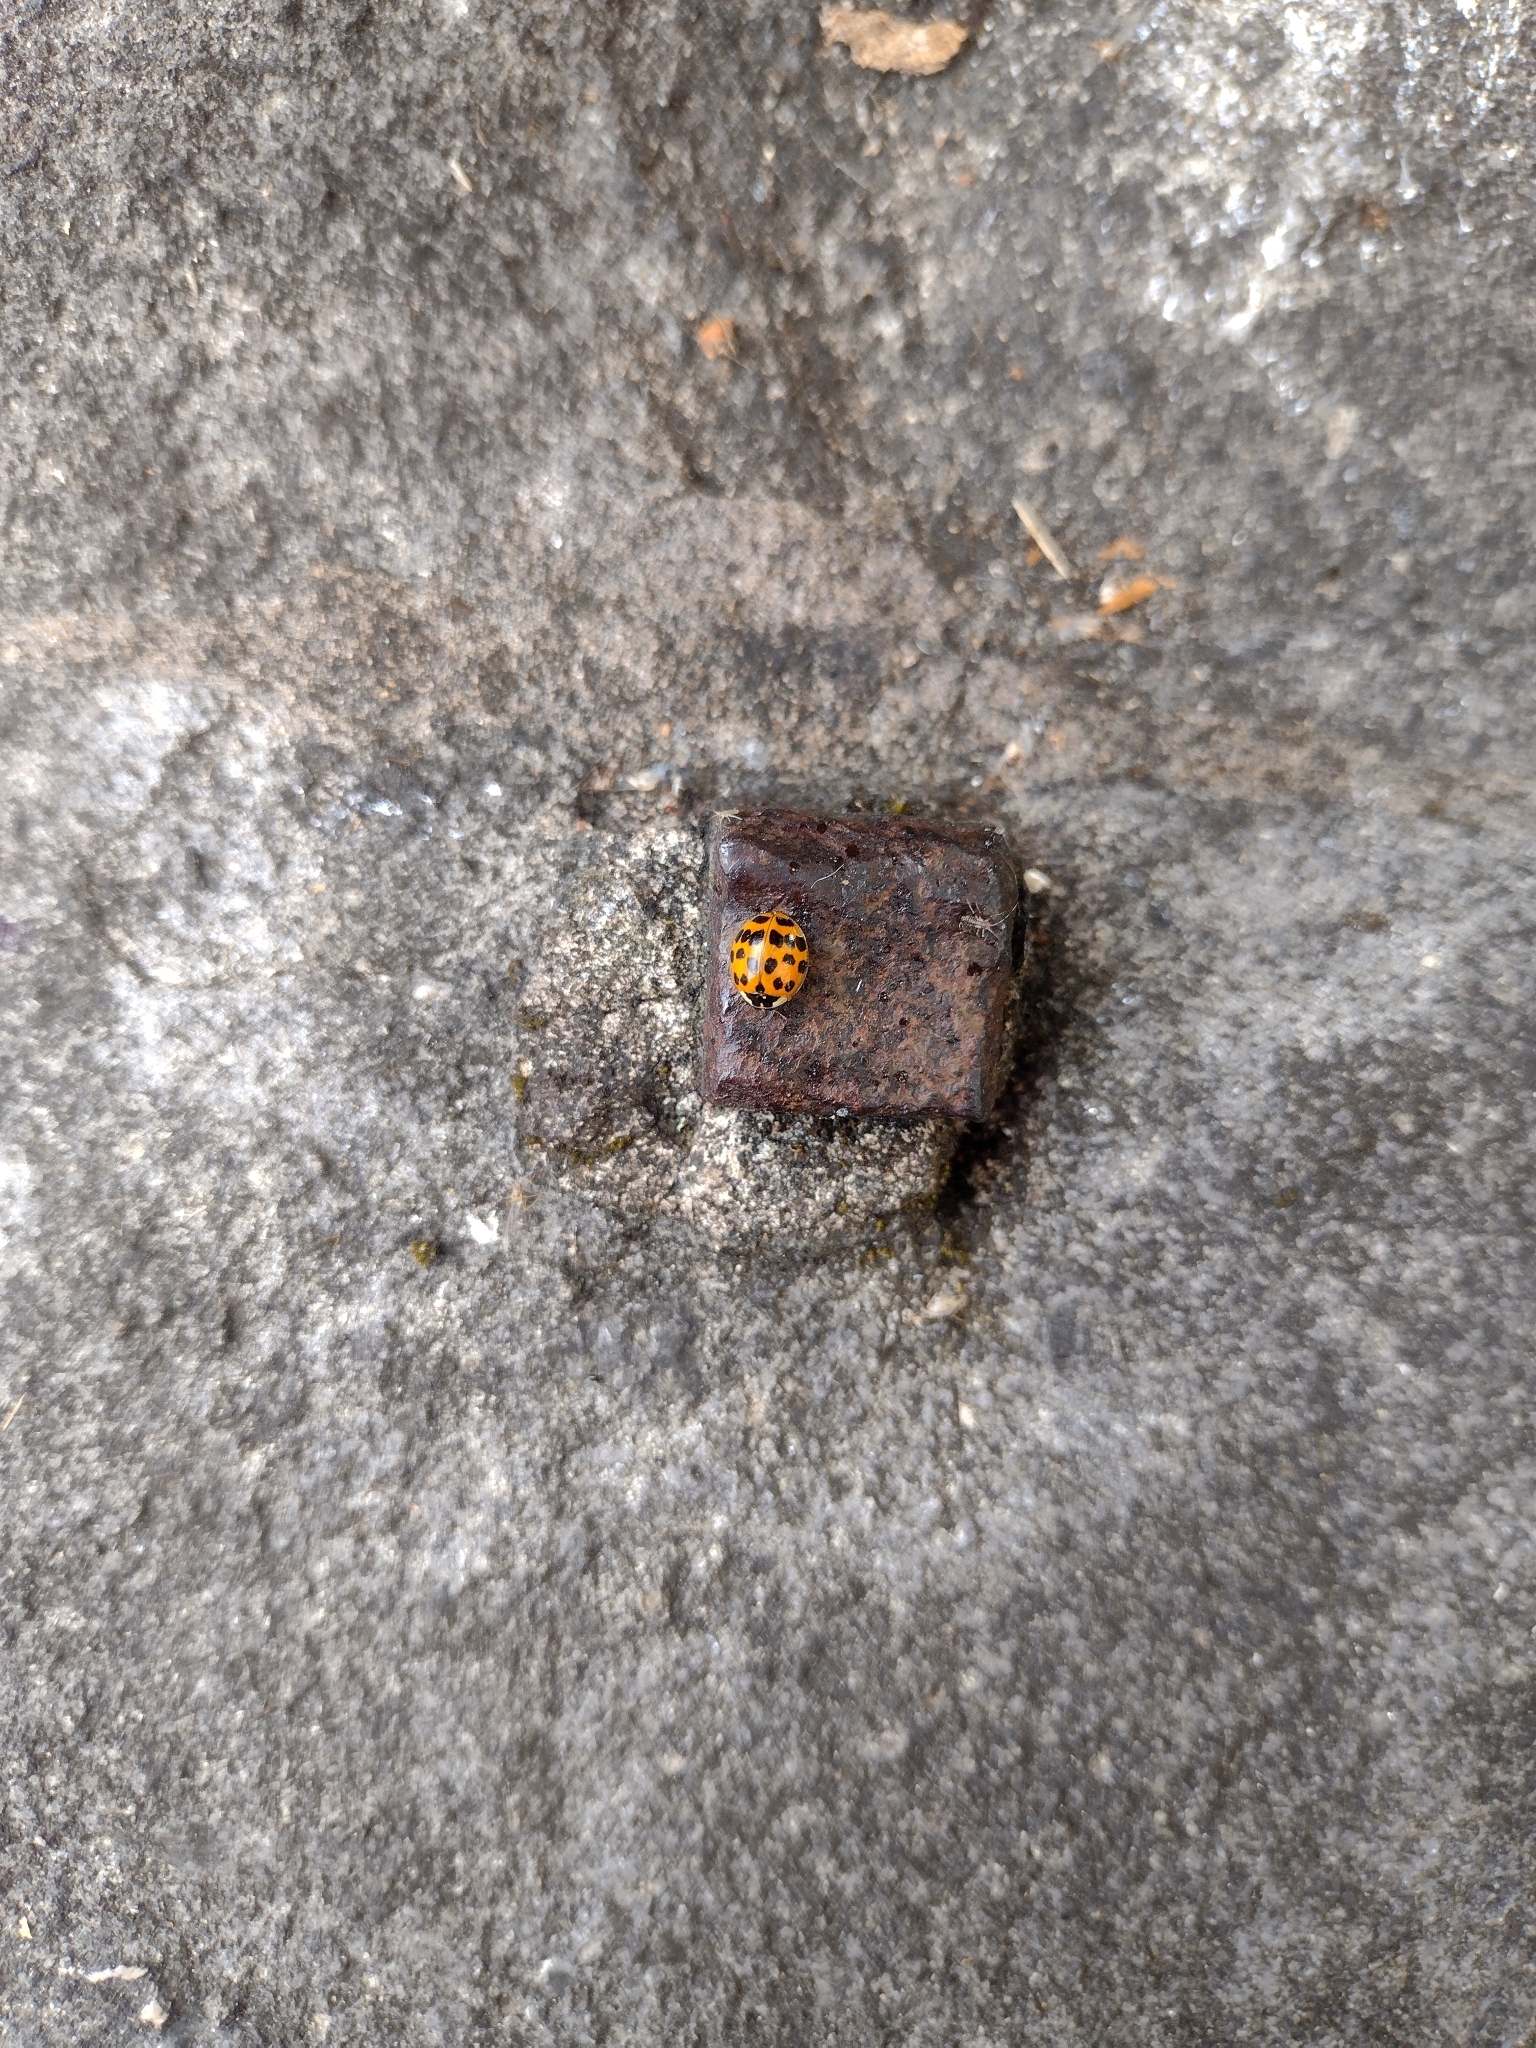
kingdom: Animalia
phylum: Arthropoda
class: Insecta
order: Coleoptera
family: Coccinellidae
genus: Harmonia
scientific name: Harmonia axyridis
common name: Harlequin ladybird
